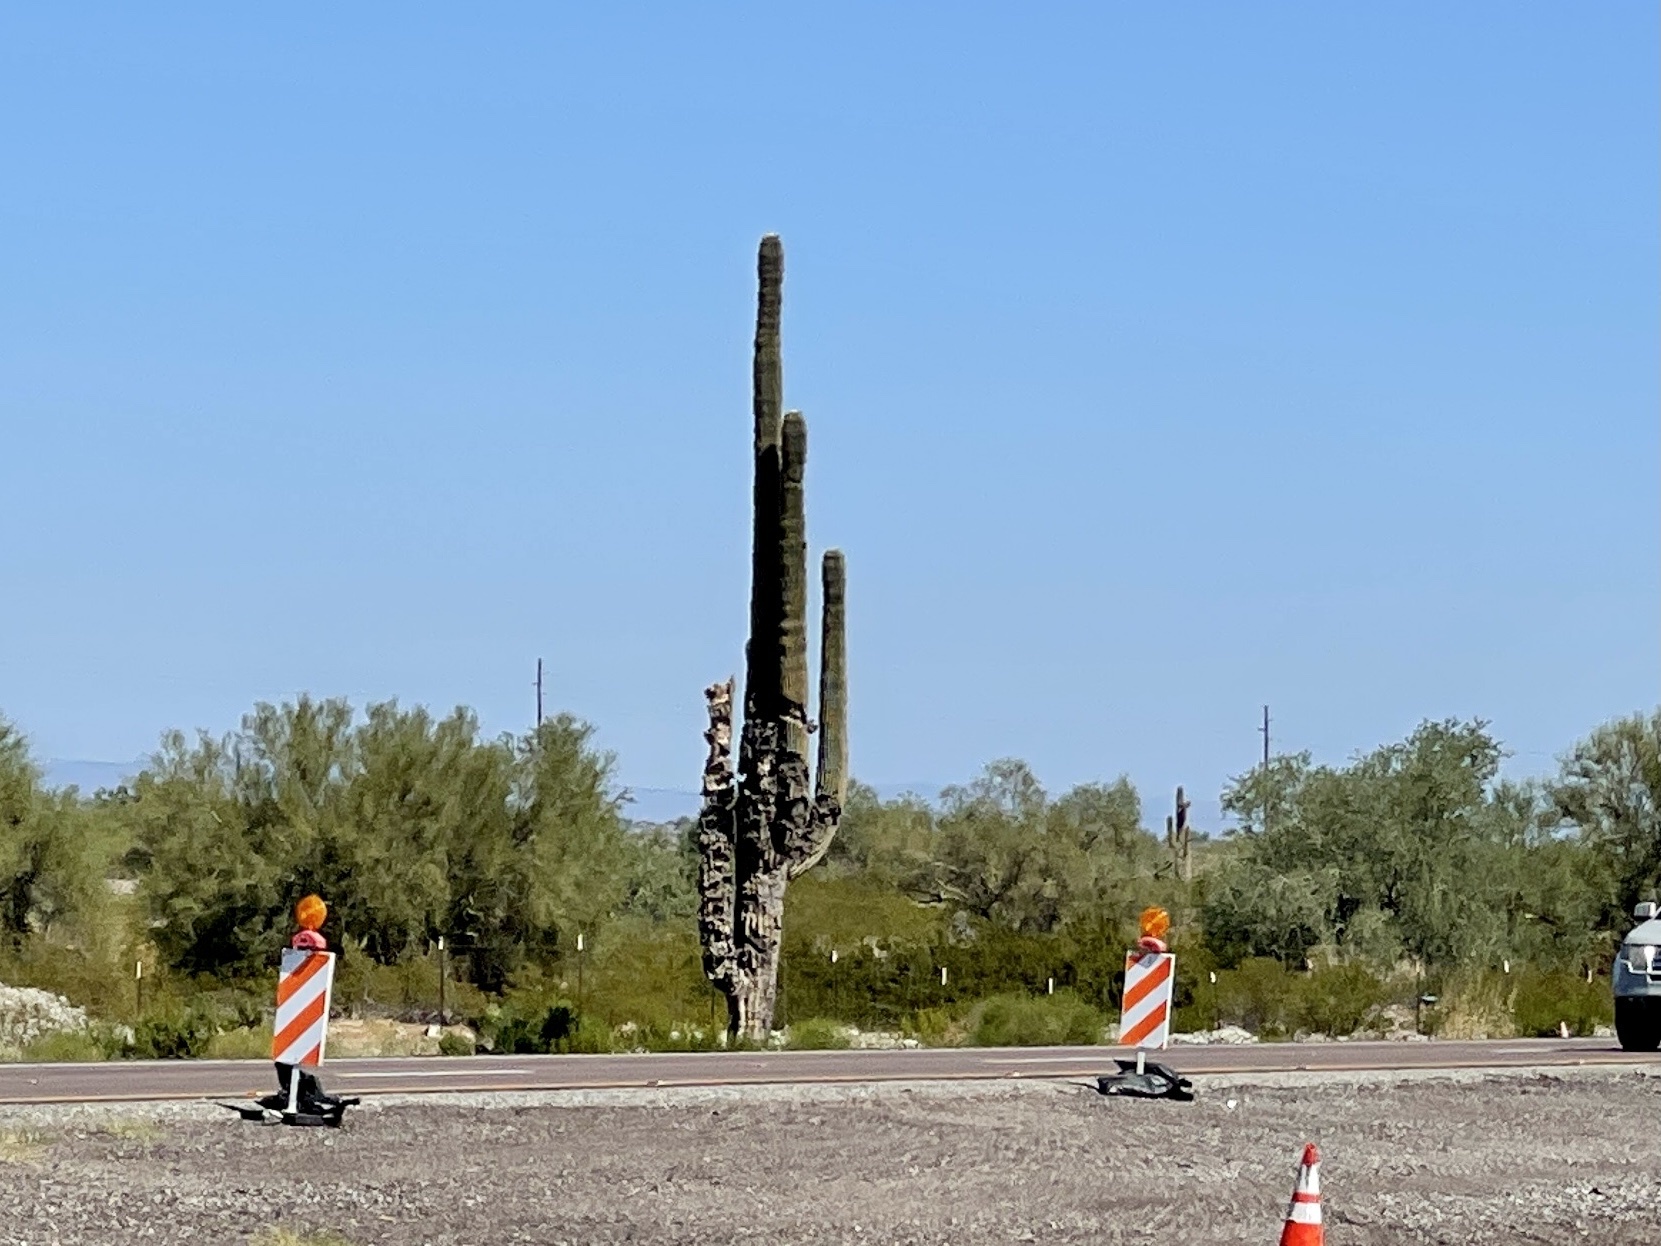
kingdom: Plantae
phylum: Tracheophyta
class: Magnoliopsida
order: Caryophyllales
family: Cactaceae
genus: Carnegiea
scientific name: Carnegiea gigantea
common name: Saguaro
